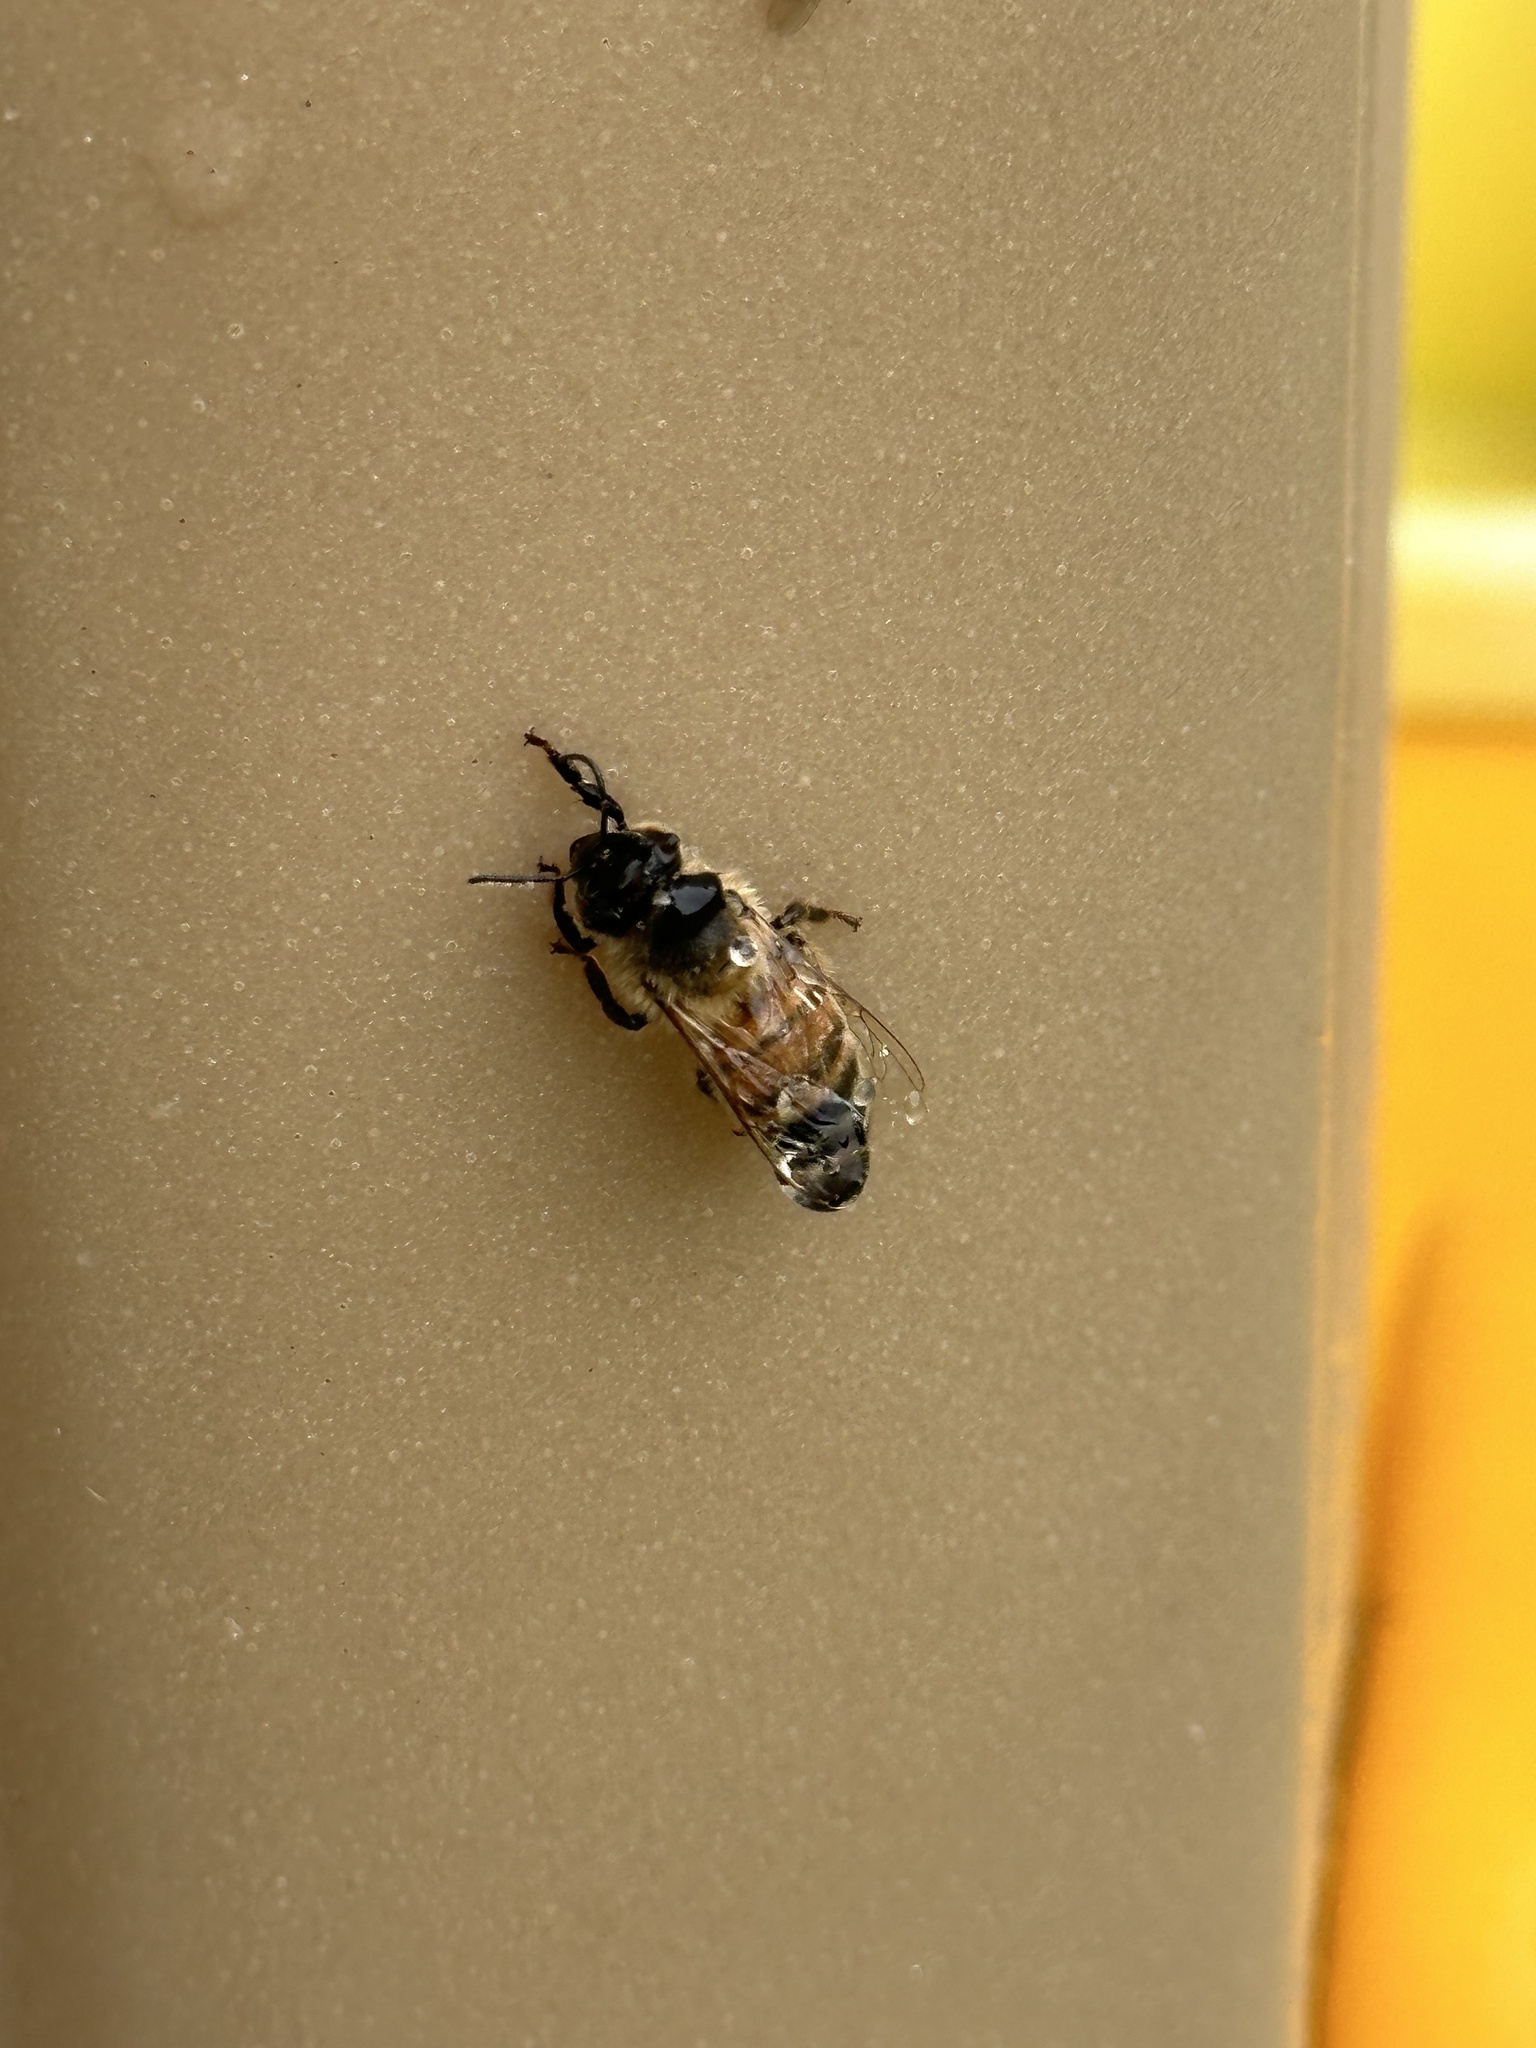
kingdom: Animalia
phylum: Arthropoda
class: Insecta
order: Hymenoptera
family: Apidae
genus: Apis
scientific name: Apis mellifera
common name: Honey bee
